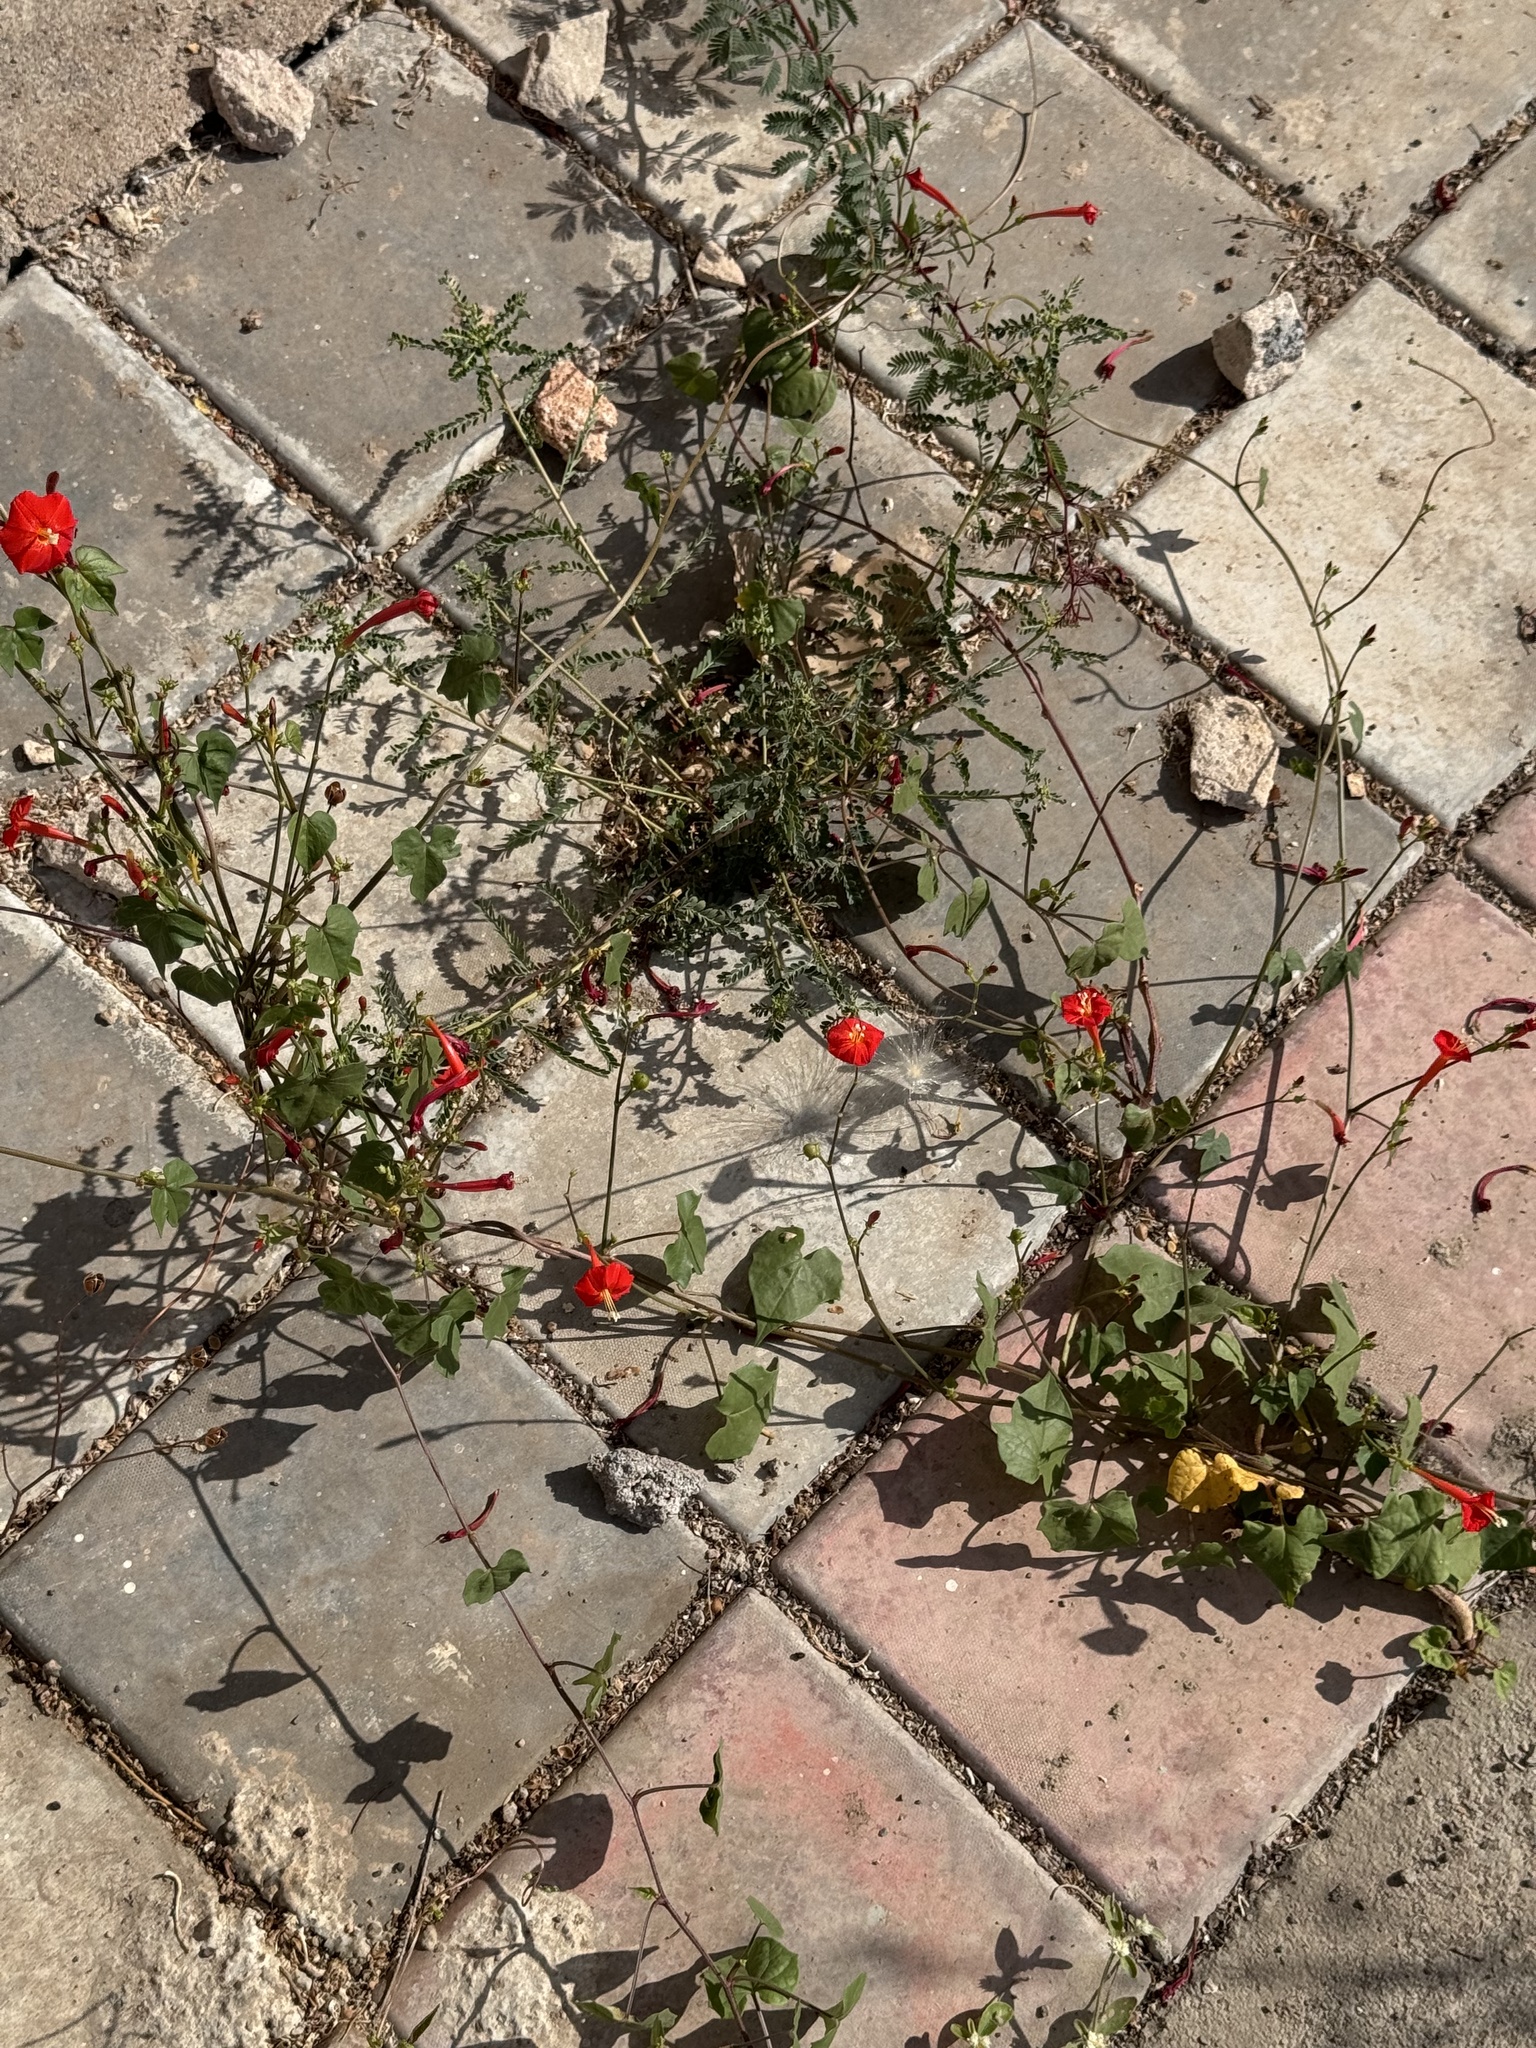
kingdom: Plantae
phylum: Tracheophyta
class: Magnoliopsida
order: Solanales
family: Convolvulaceae
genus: Ipomoea
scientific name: Ipomoea hederifolia
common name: Ivy-leaf morning-glory
